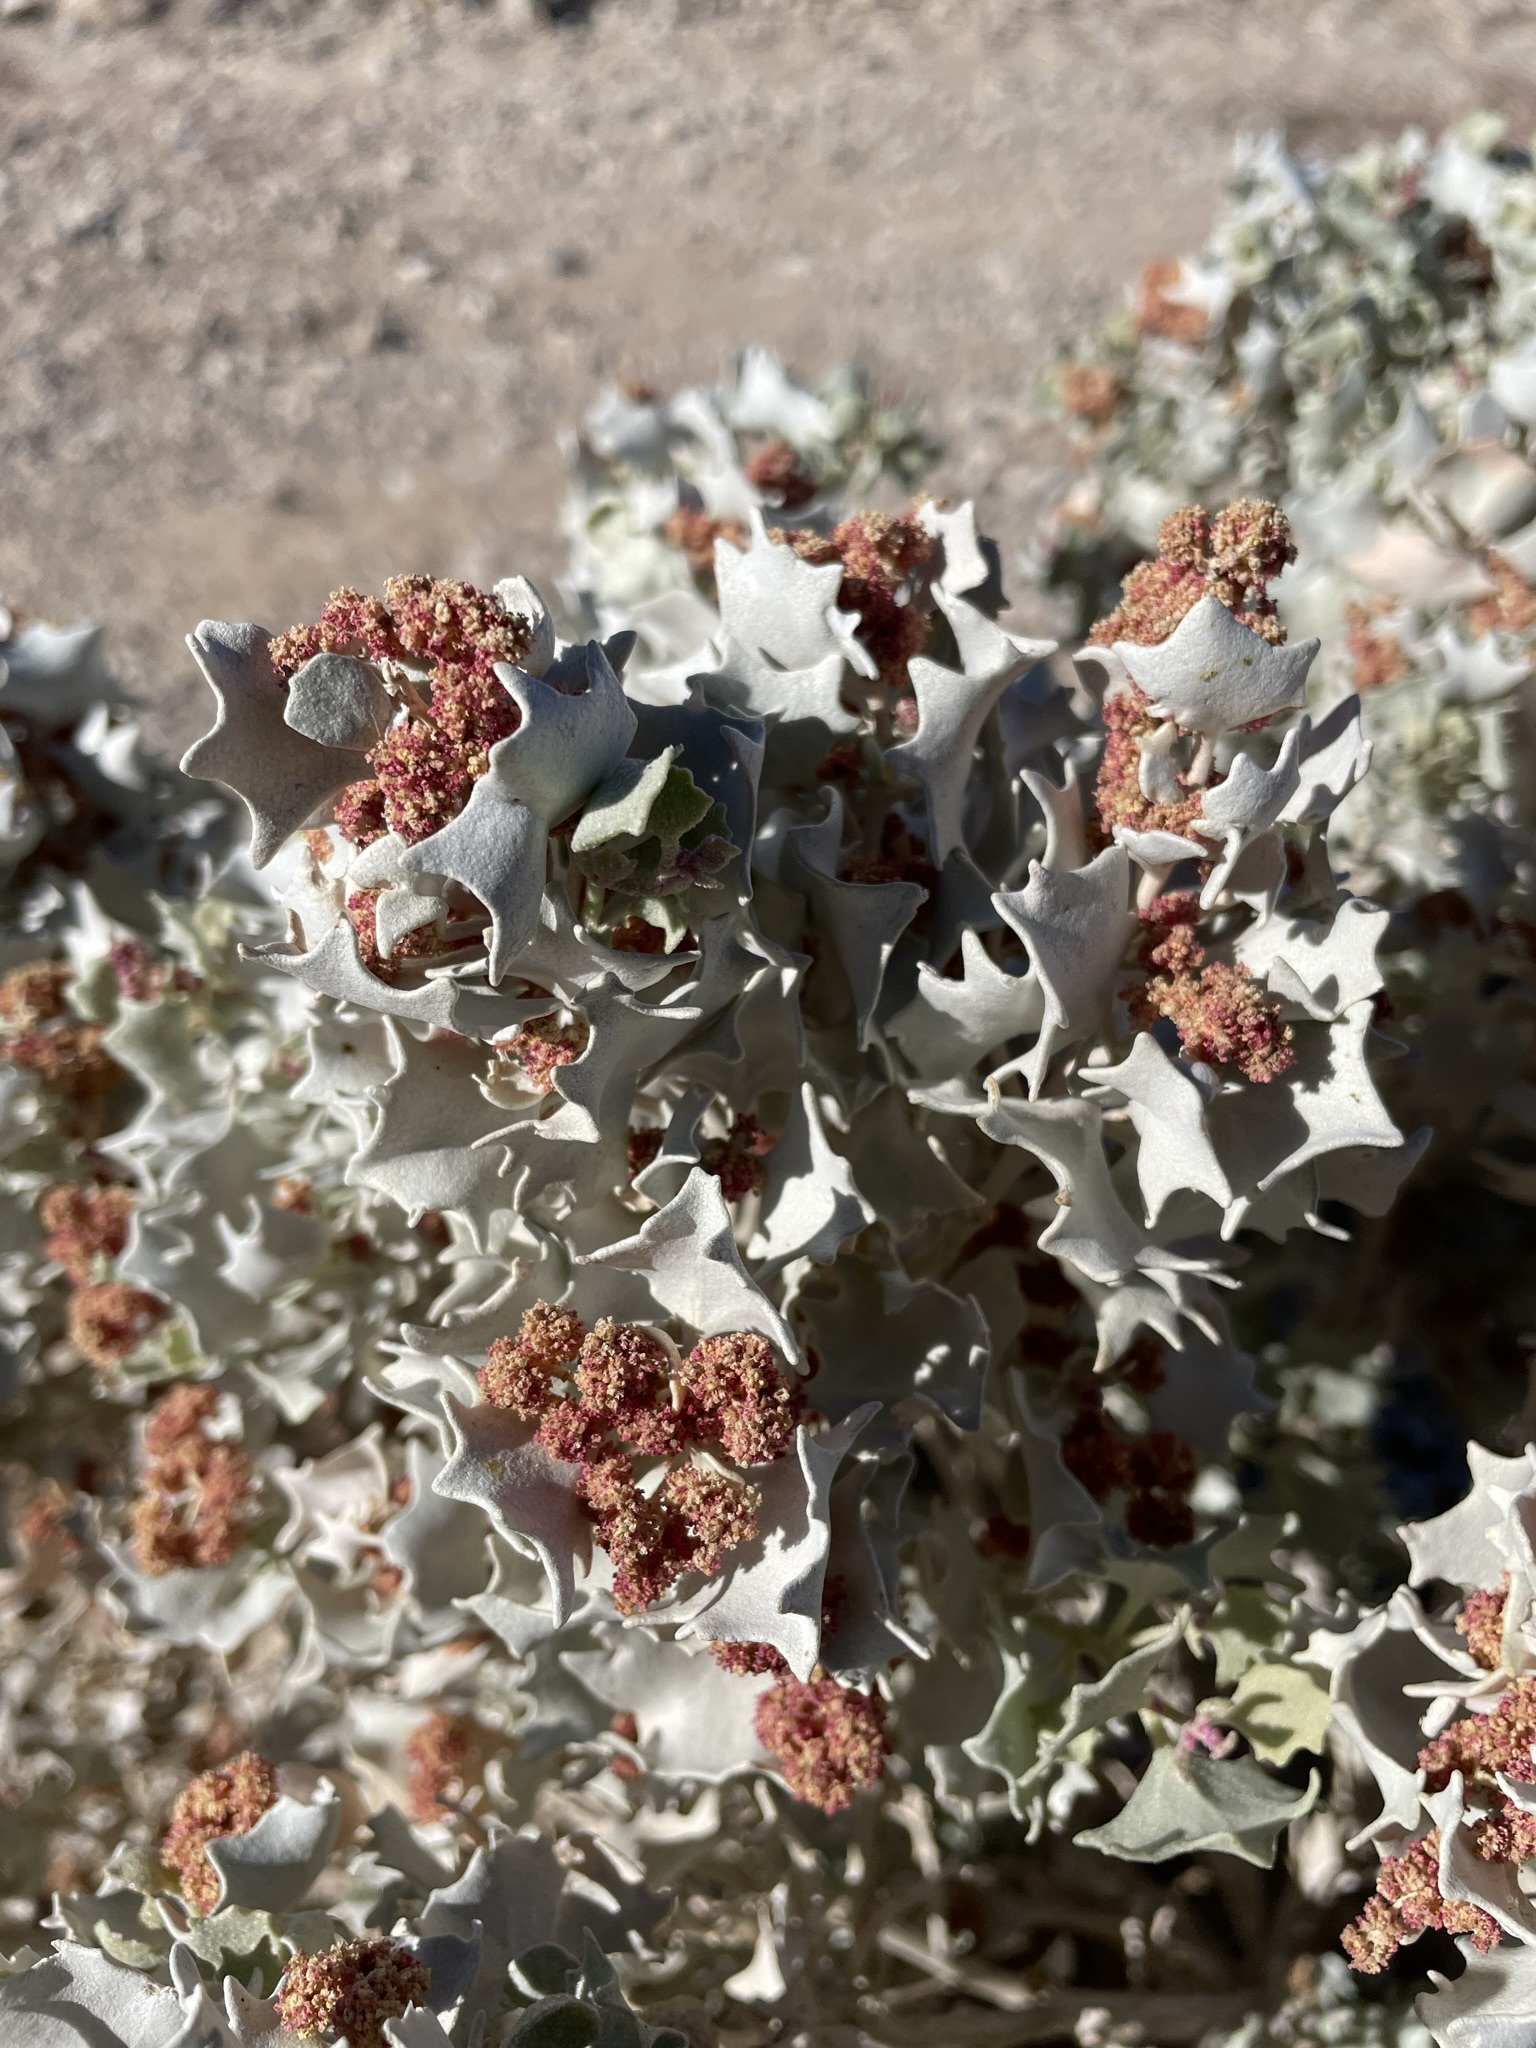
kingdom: Plantae
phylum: Tracheophyta
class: Magnoliopsida
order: Caryophyllales
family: Amaranthaceae
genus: Atriplex
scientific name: Atriplex hymenelytra
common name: Desert-holly
